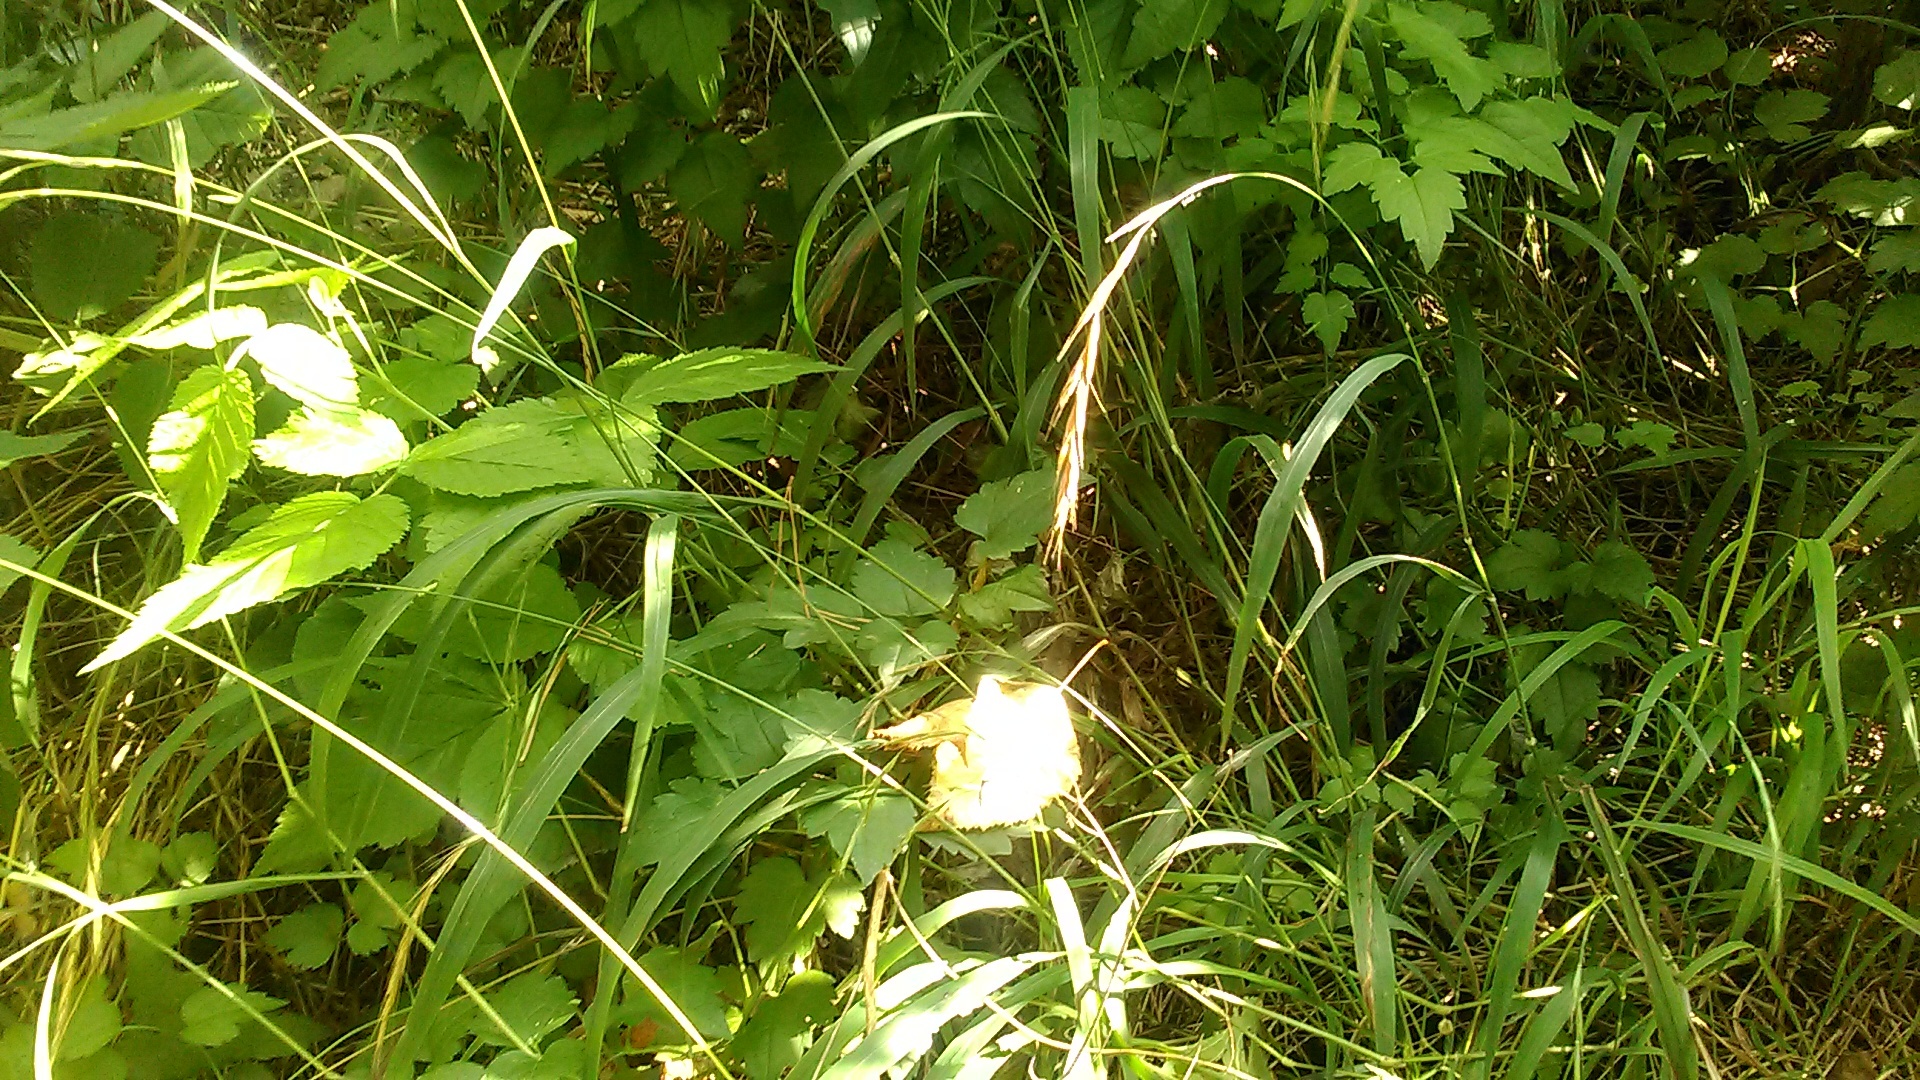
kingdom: Plantae
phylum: Tracheophyta
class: Liliopsida
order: Poales
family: Poaceae
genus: Brachypodium
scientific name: Brachypodium sylvaticum
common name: False-brome
